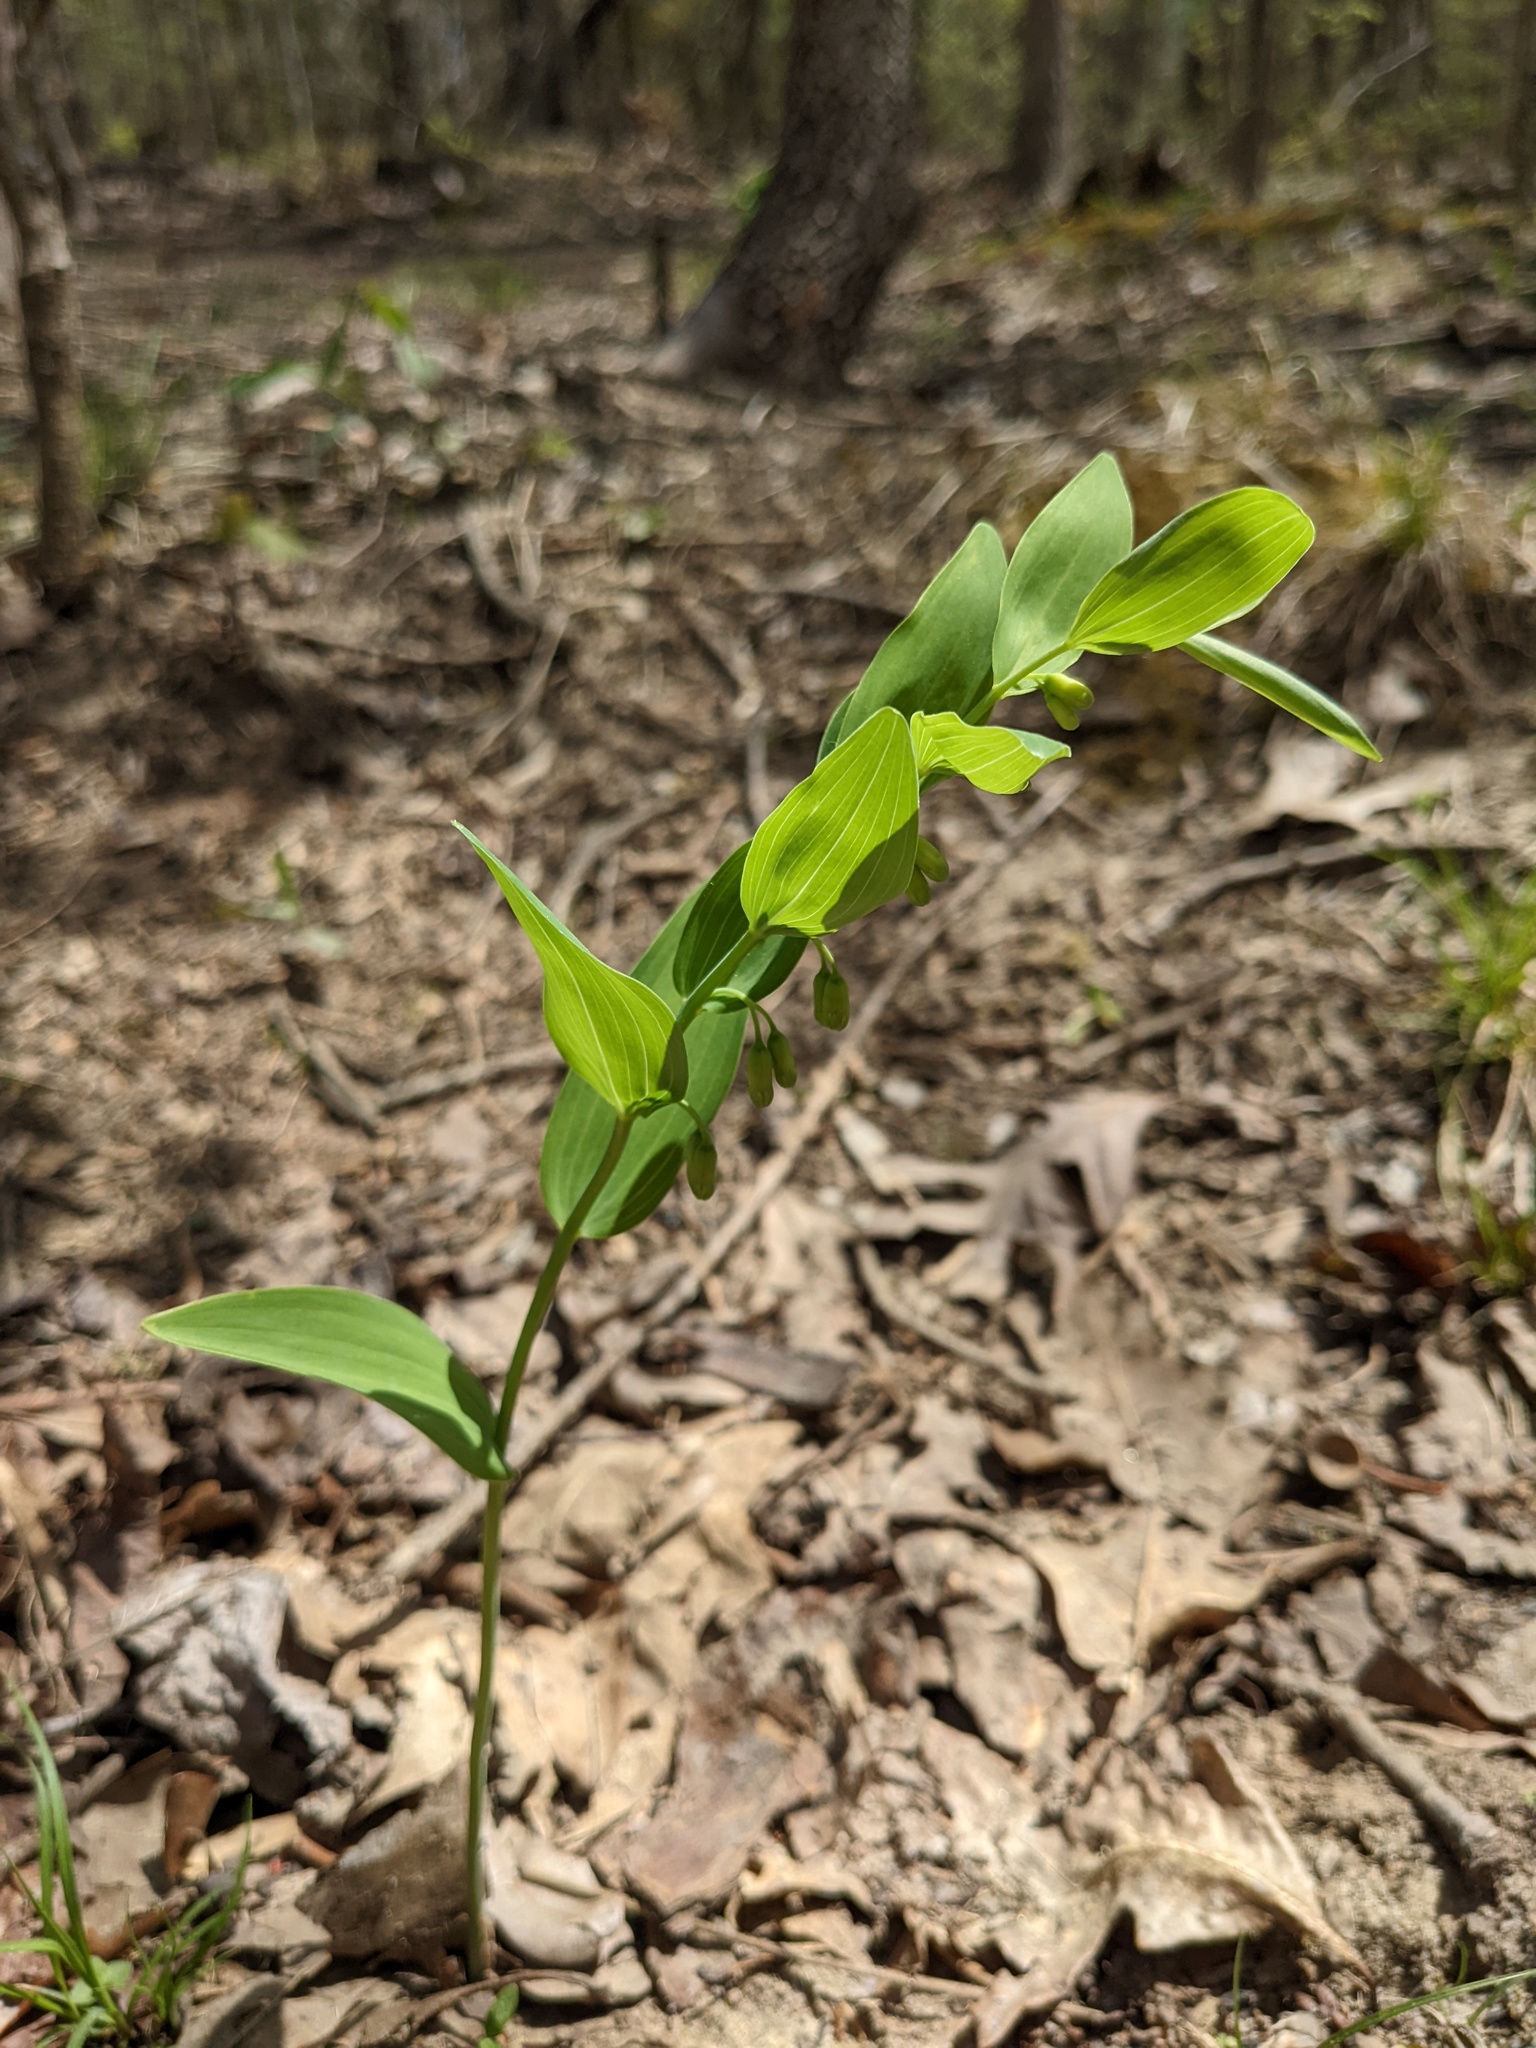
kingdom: Plantae
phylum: Tracheophyta
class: Liliopsida
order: Asparagales
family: Asparagaceae
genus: Polygonatum
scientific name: Polygonatum biflorum
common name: American solomon's-seal
